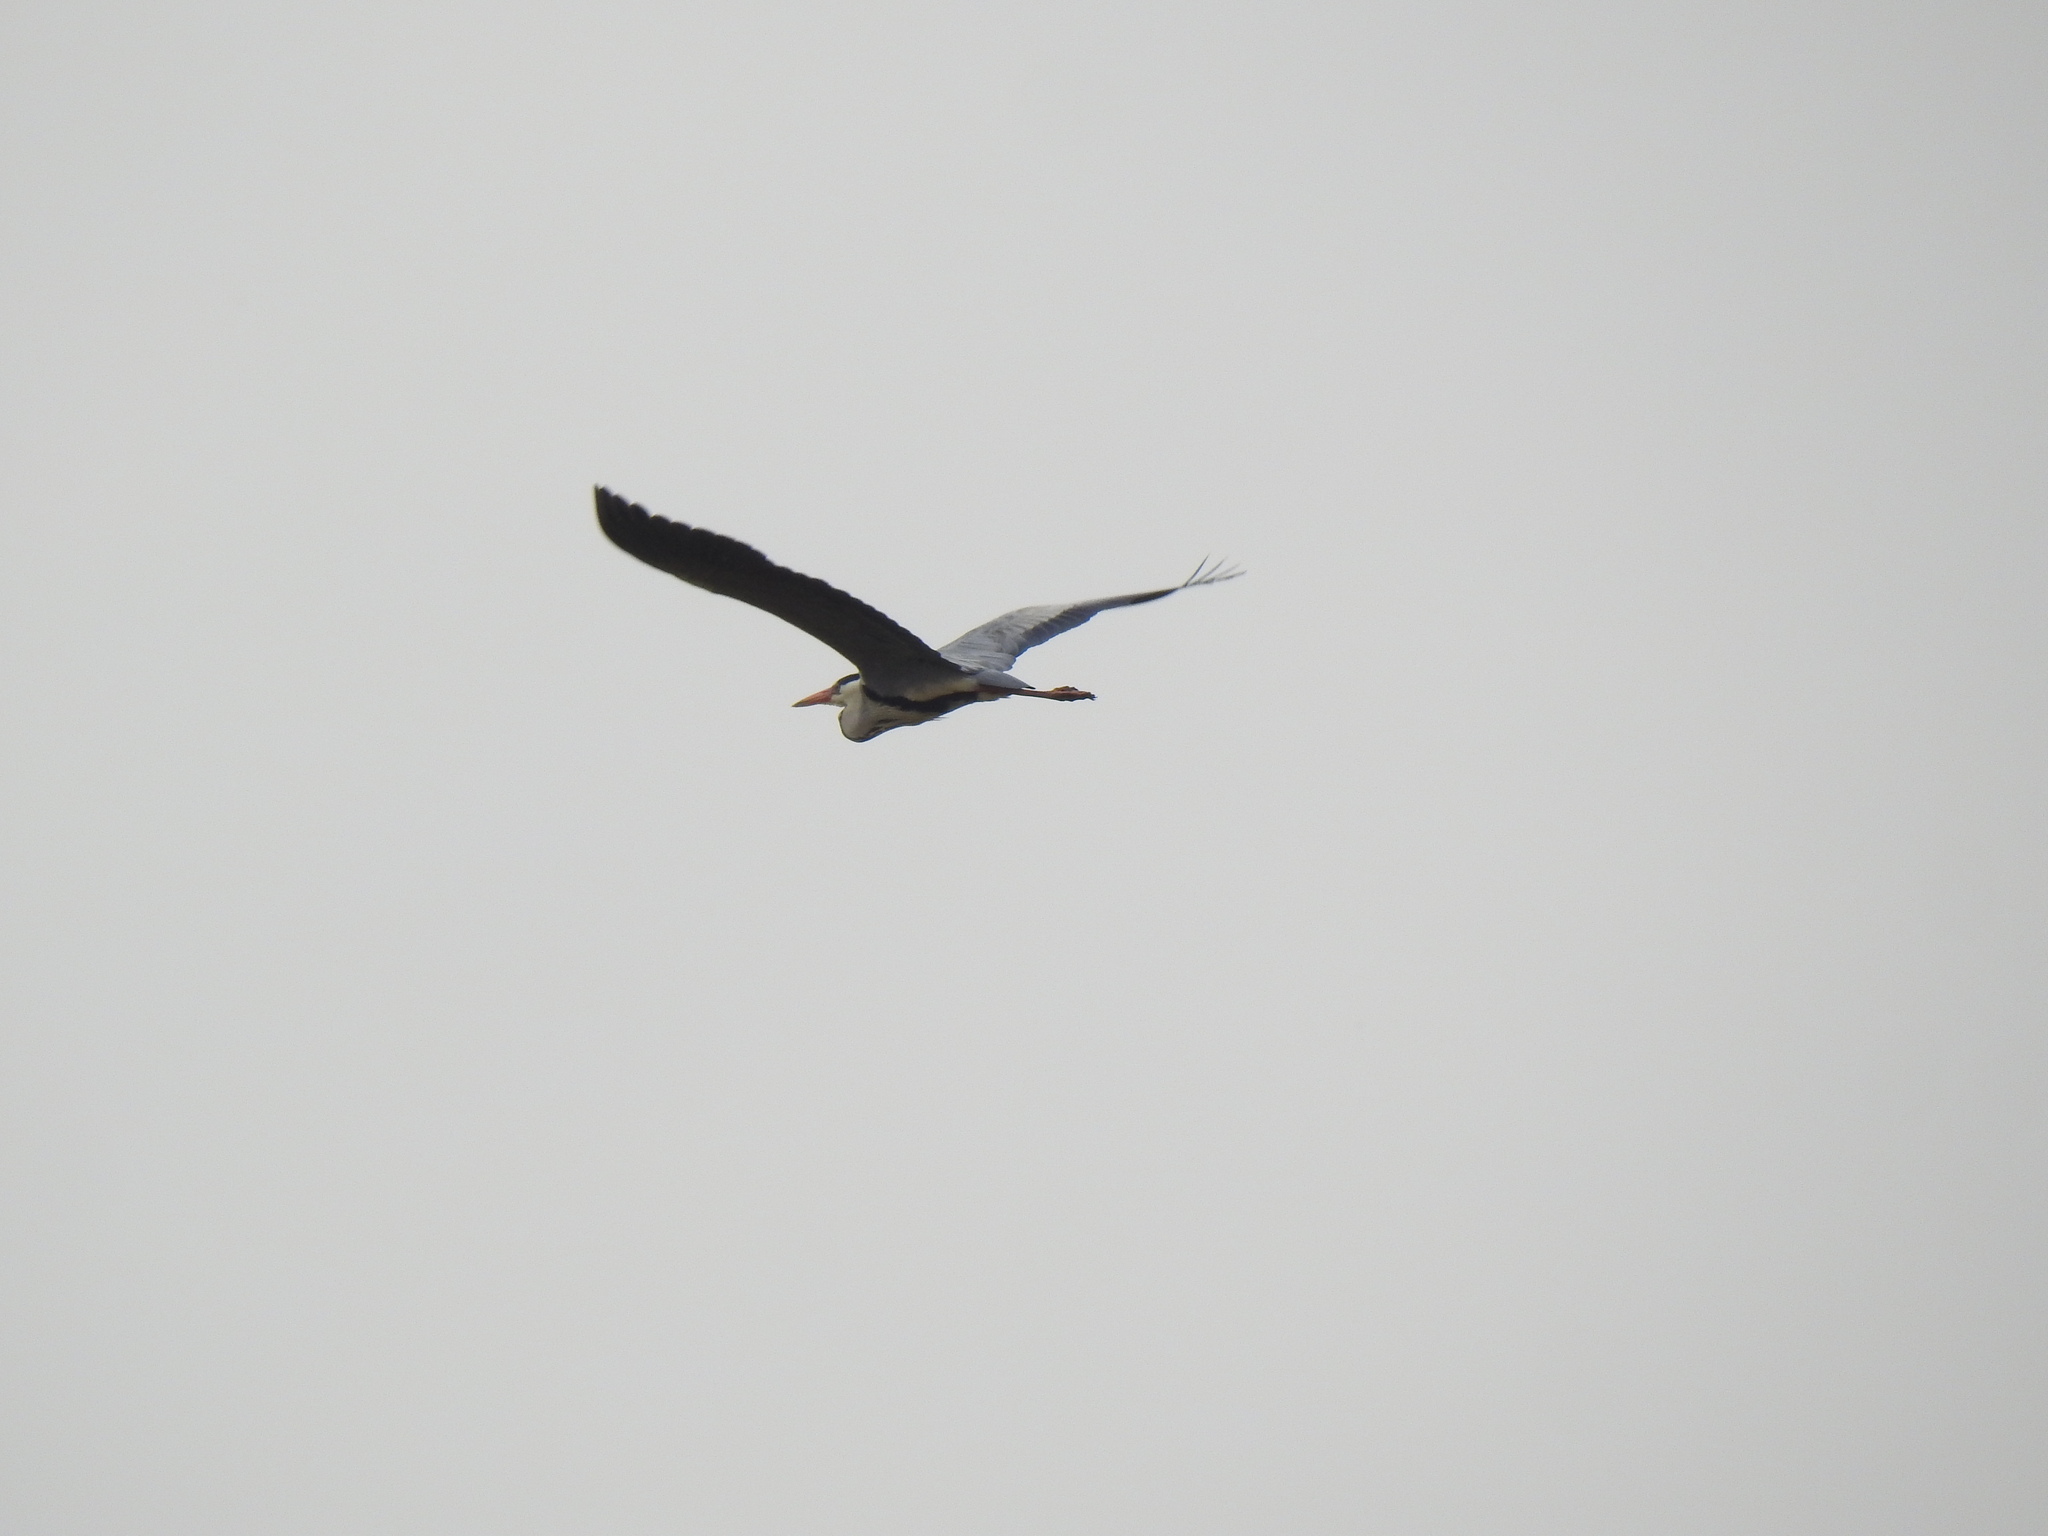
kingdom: Animalia
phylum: Chordata
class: Aves
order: Pelecaniformes
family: Ardeidae
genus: Ardea
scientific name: Ardea cinerea
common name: Grey heron
